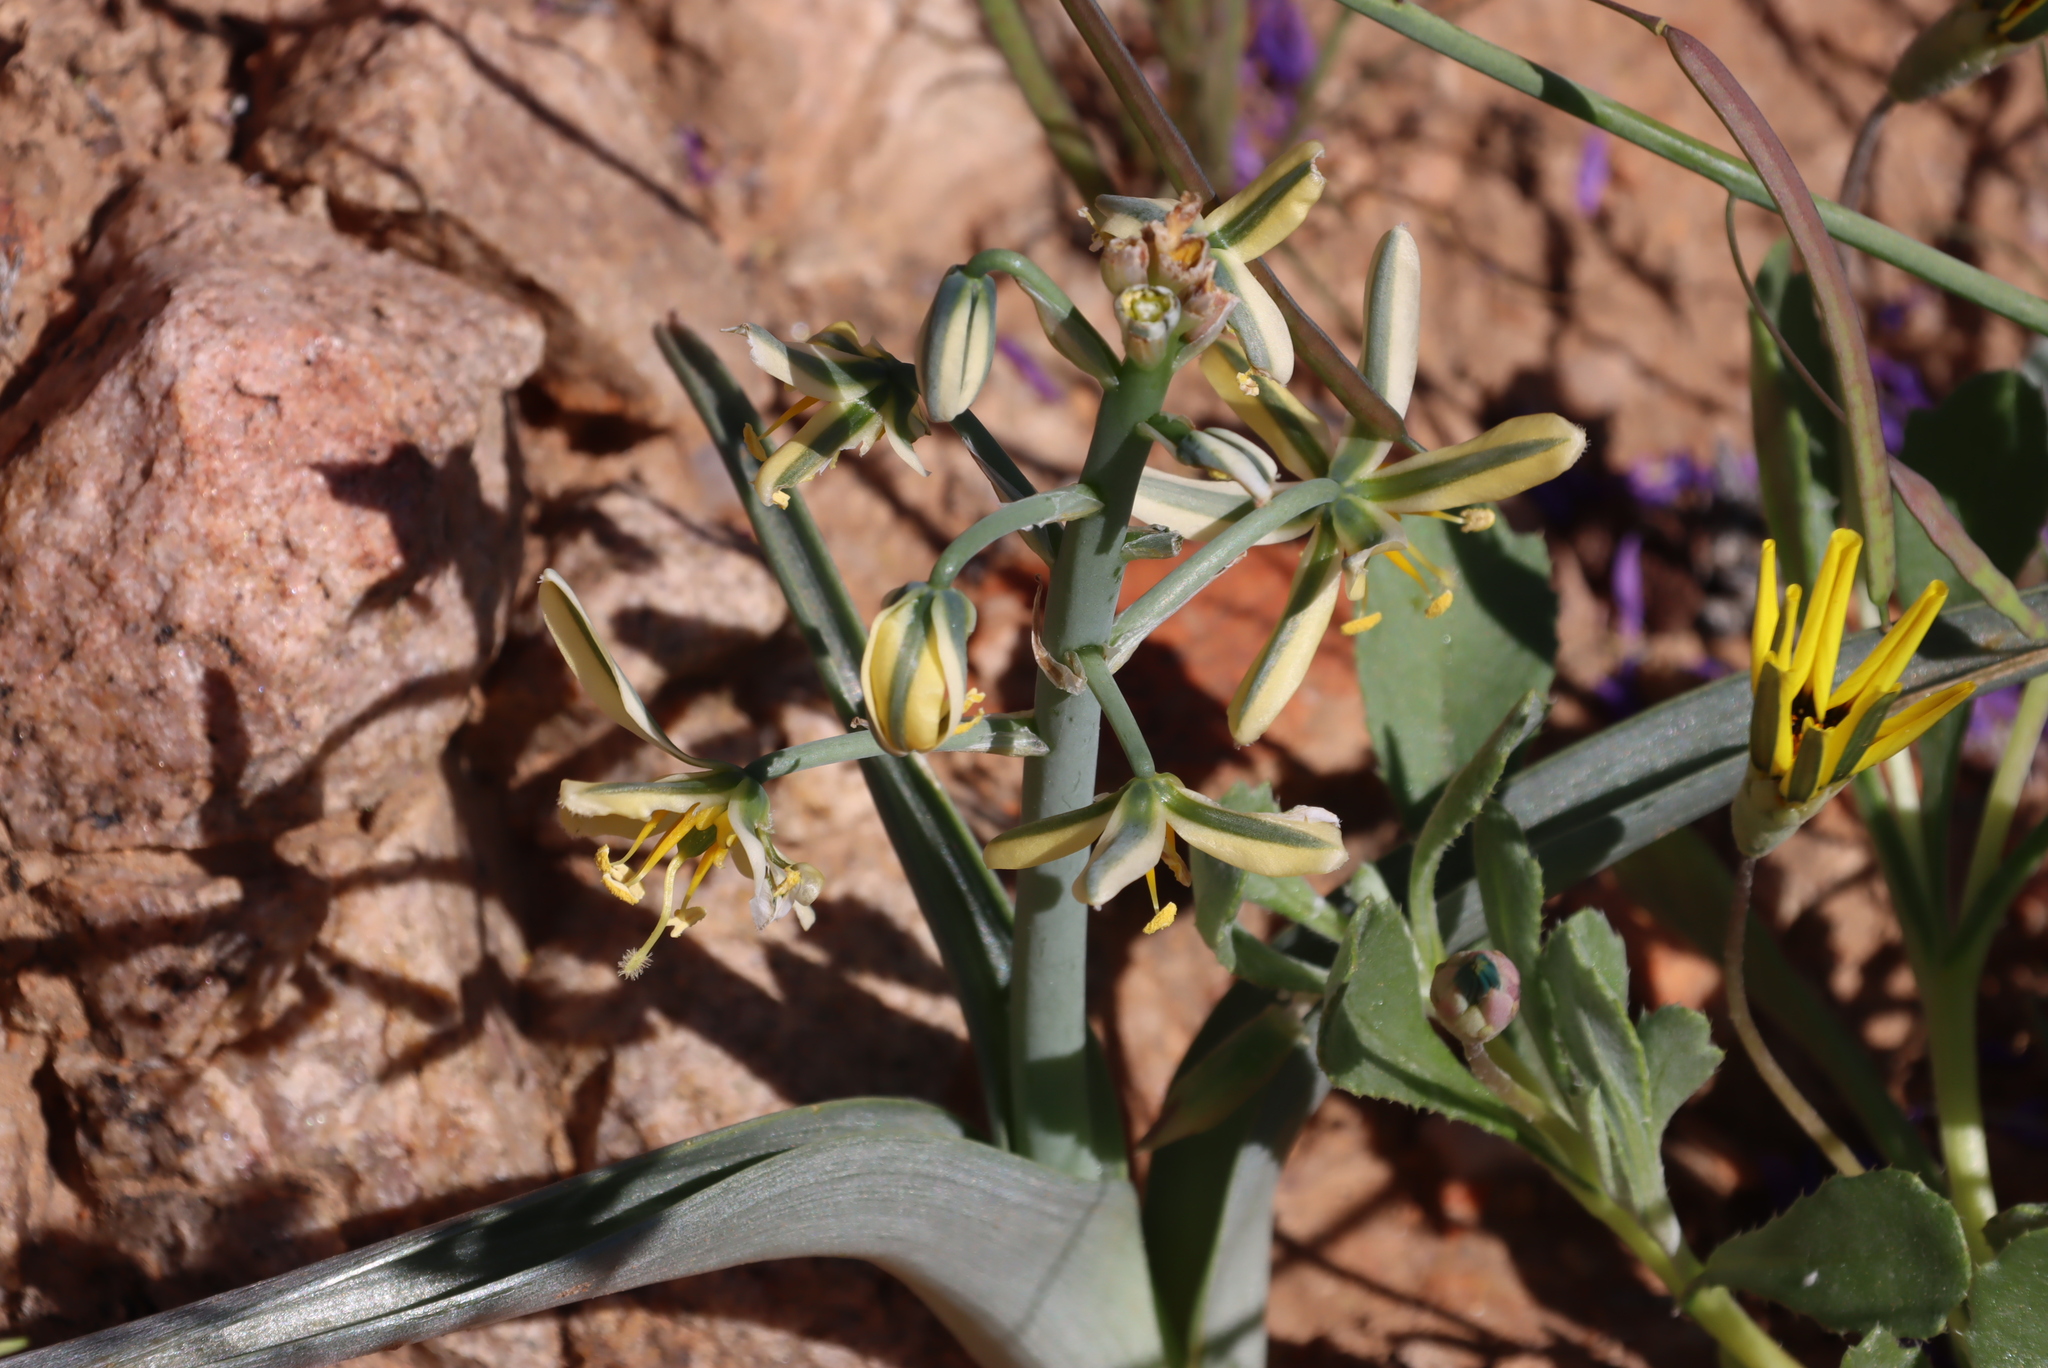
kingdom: Plantae
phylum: Tracheophyta
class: Liliopsida
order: Asparagales
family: Asparagaceae
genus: Albuca
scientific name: Albuca pearsonii
